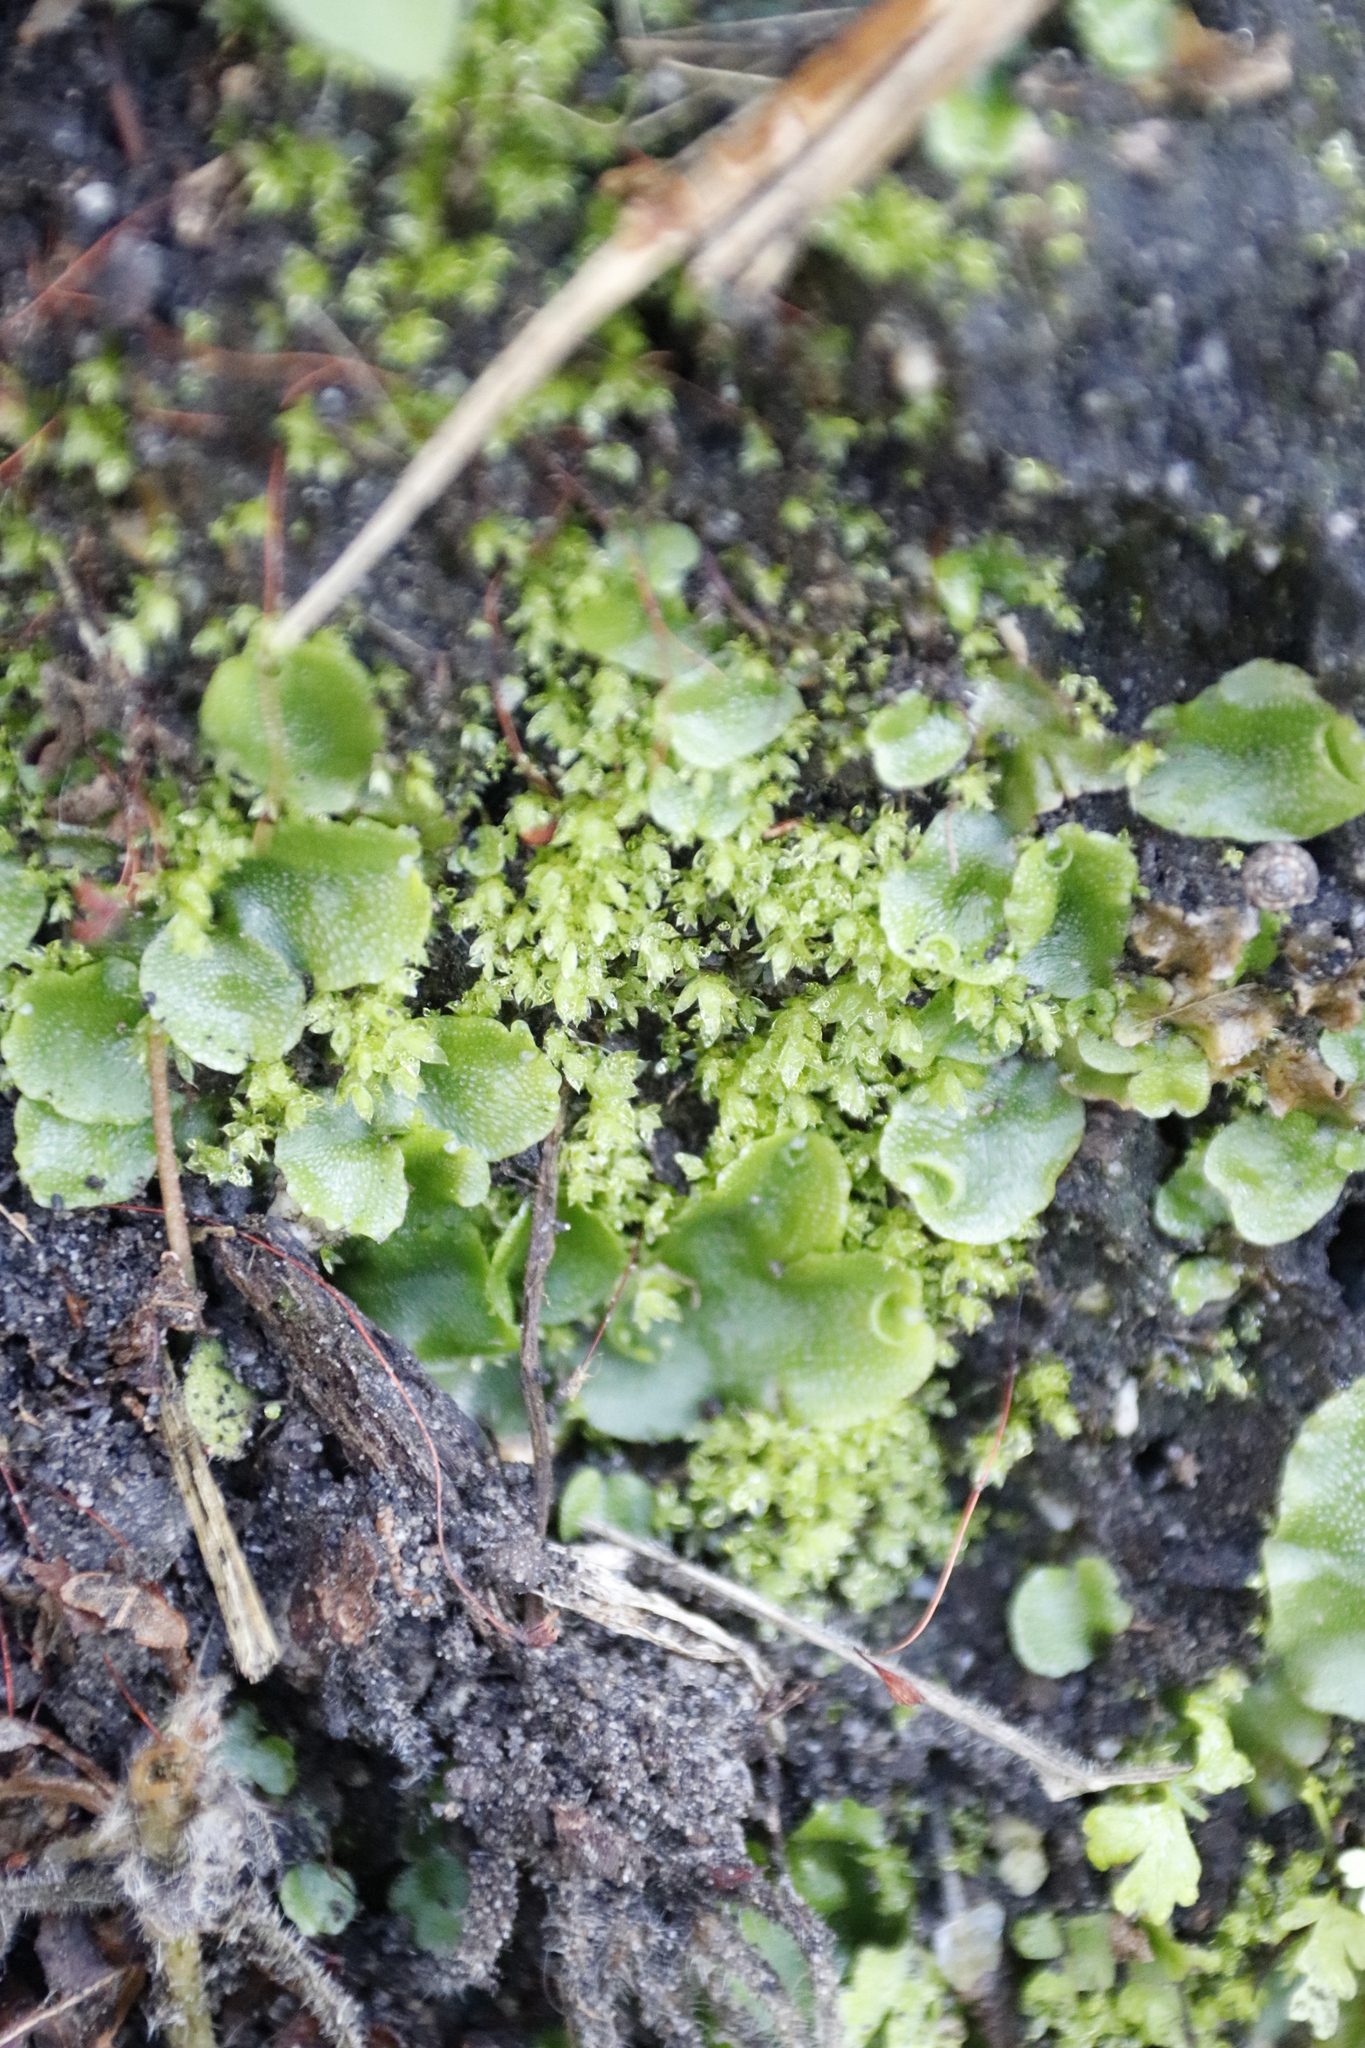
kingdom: Plantae
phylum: Marchantiophyta
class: Marchantiopsida
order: Lunulariales
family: Lunulariaceae
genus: Lunularia
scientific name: Lunularia cruciata
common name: Crescent-cup liverwort
